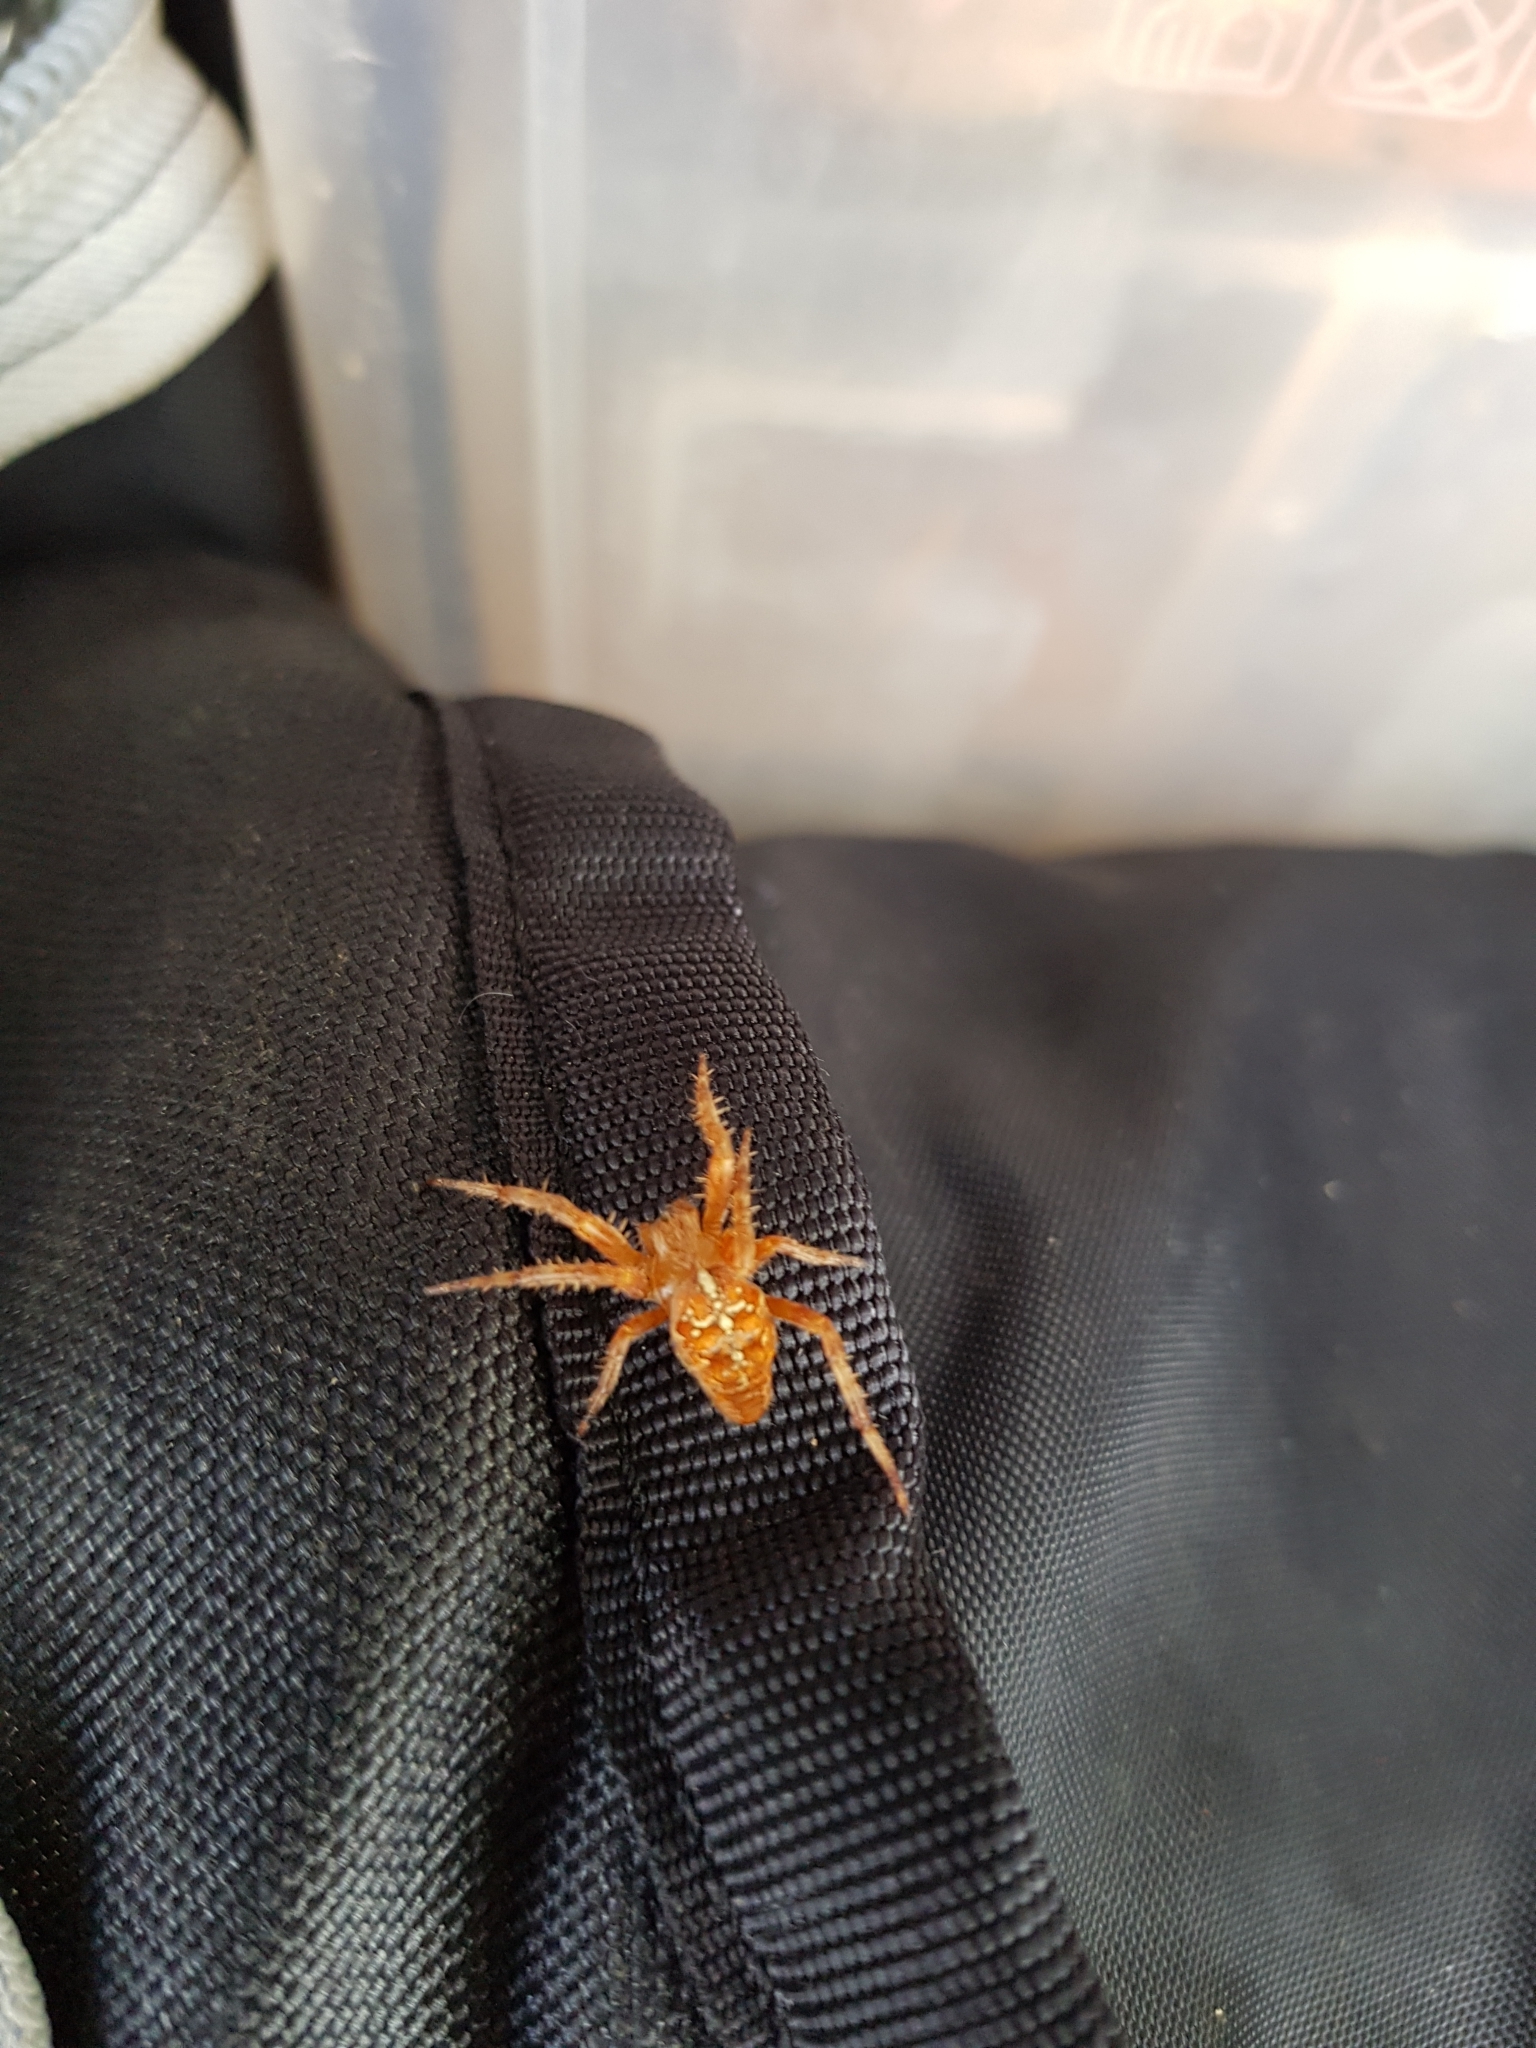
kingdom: Animalia
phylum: Arthropoda
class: Arachnida
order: Araneae
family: Araneidae
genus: Araneus
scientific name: Araneus diadematus
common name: Cross orbweaver
